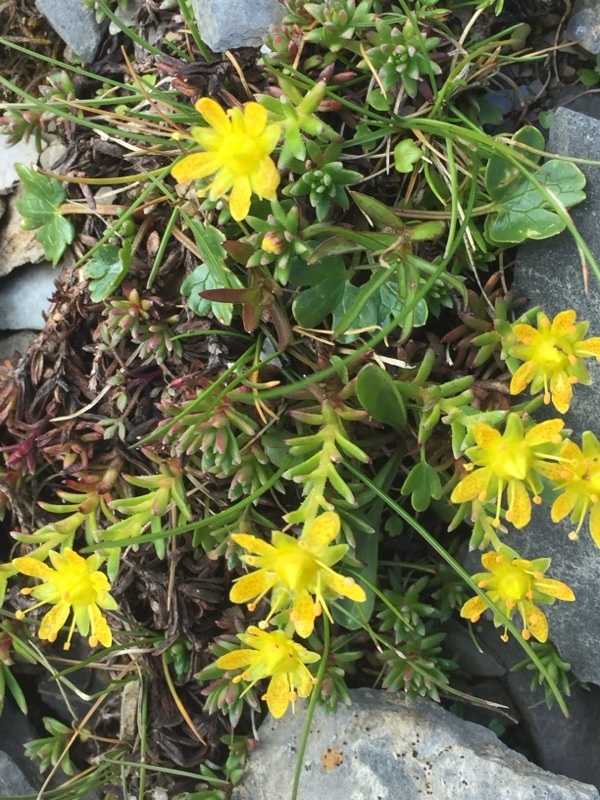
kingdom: Plantae
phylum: Tracheophyta
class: Magnoliopsida
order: Saxifragales
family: Saxifragaceae
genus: Saxifraga
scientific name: Saxifraga aizoides
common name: Yellow mountain saxifrage
